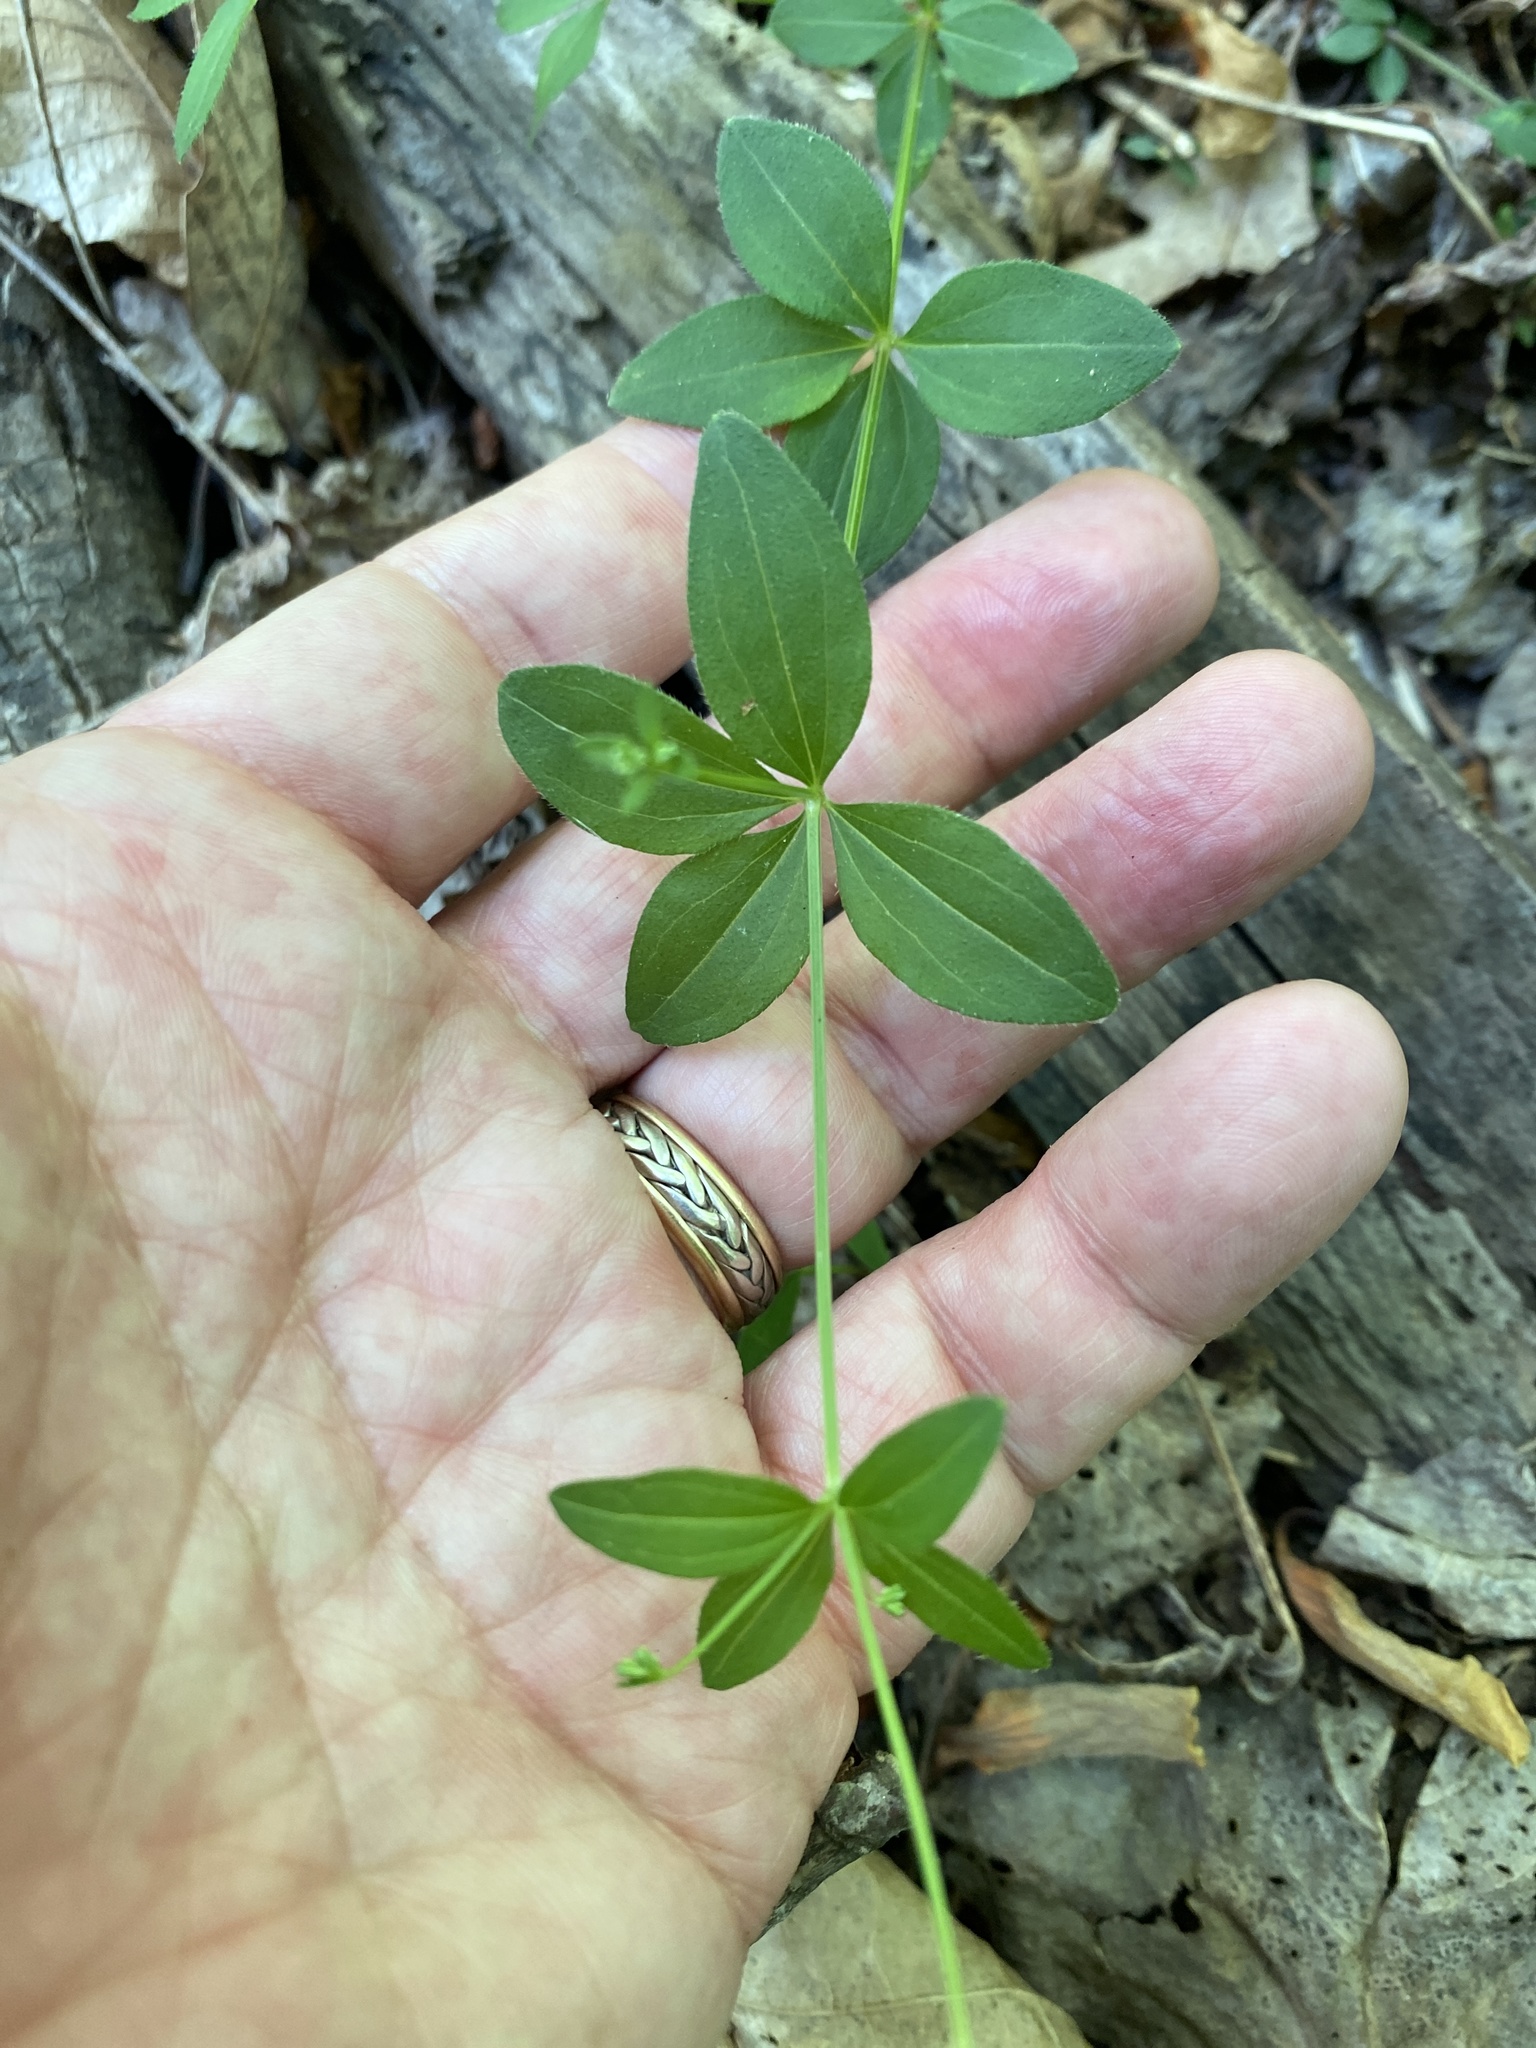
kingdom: Plantae
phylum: Tracheophyta
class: Magnoliopsida
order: Gentianales
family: Rubiaceae
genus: Galium
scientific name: Galium circaezans
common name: Forest bedstraw
